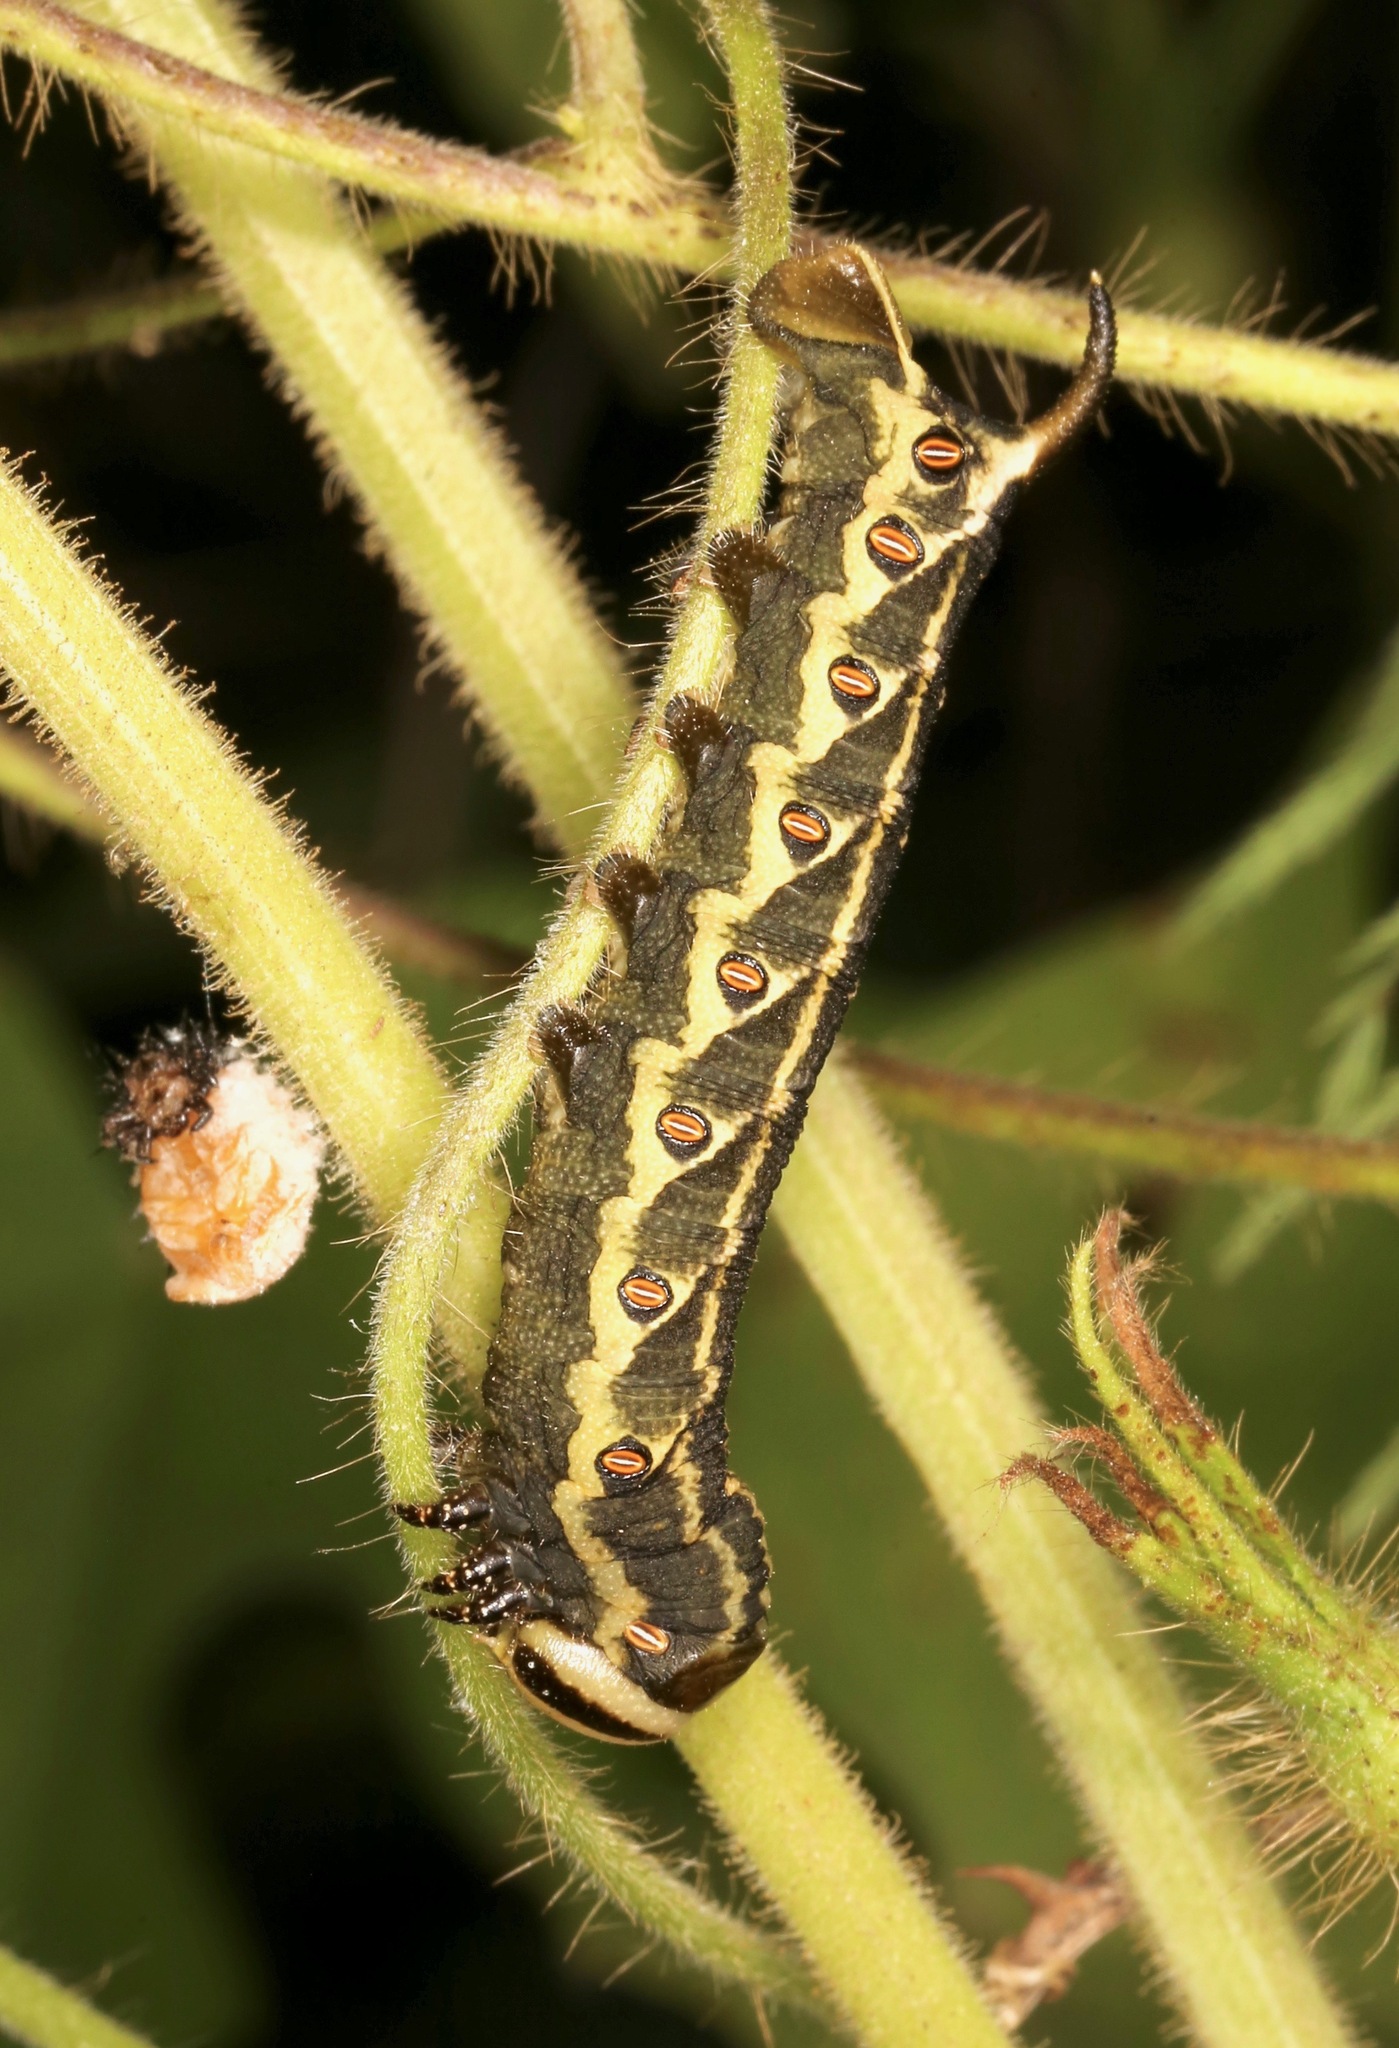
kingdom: Animalia
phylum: Arthropoda
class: Insecta
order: Lepidoptera
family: Sphingidae
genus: Agrius
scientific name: Agrius cingulata
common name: Pink-spotted hawkmoth
